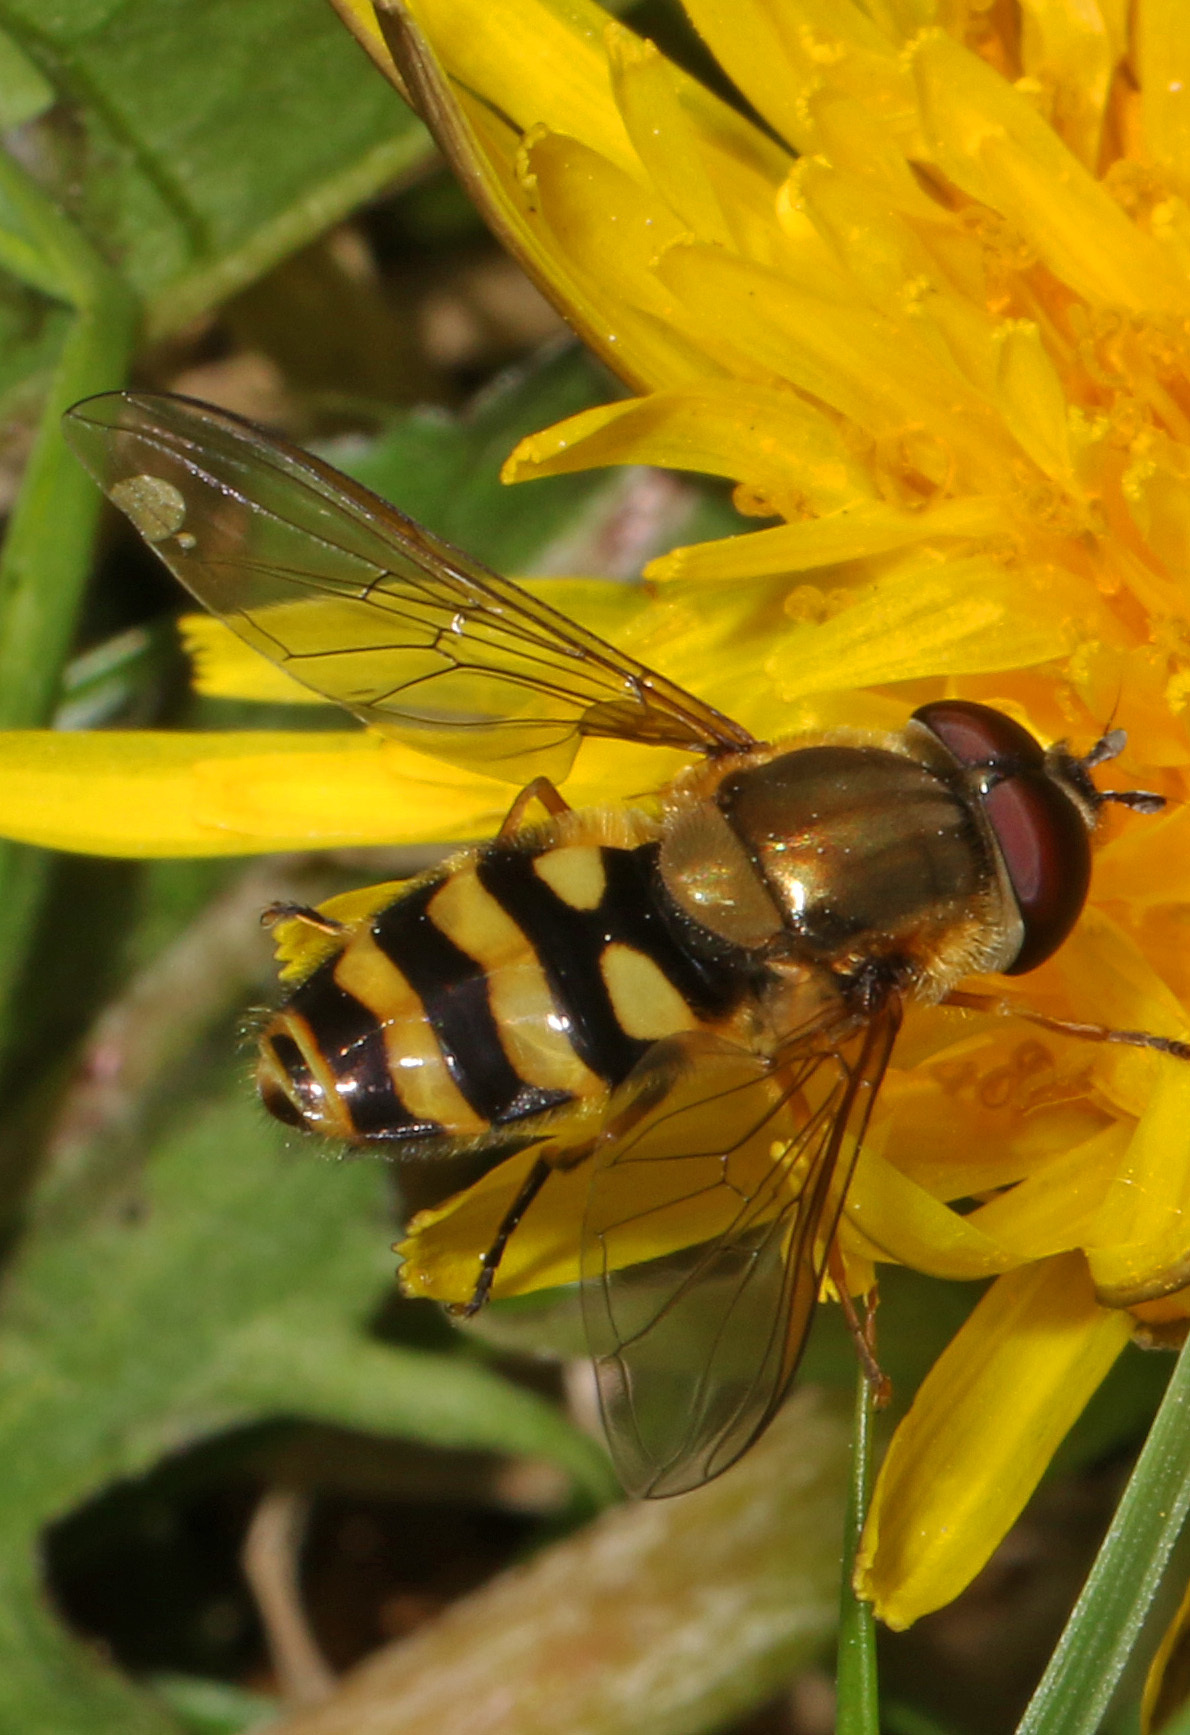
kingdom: Animalia
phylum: Arthropoda
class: Insecta
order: Diptera
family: Syrphidae
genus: Syrphus
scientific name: Syrphus
